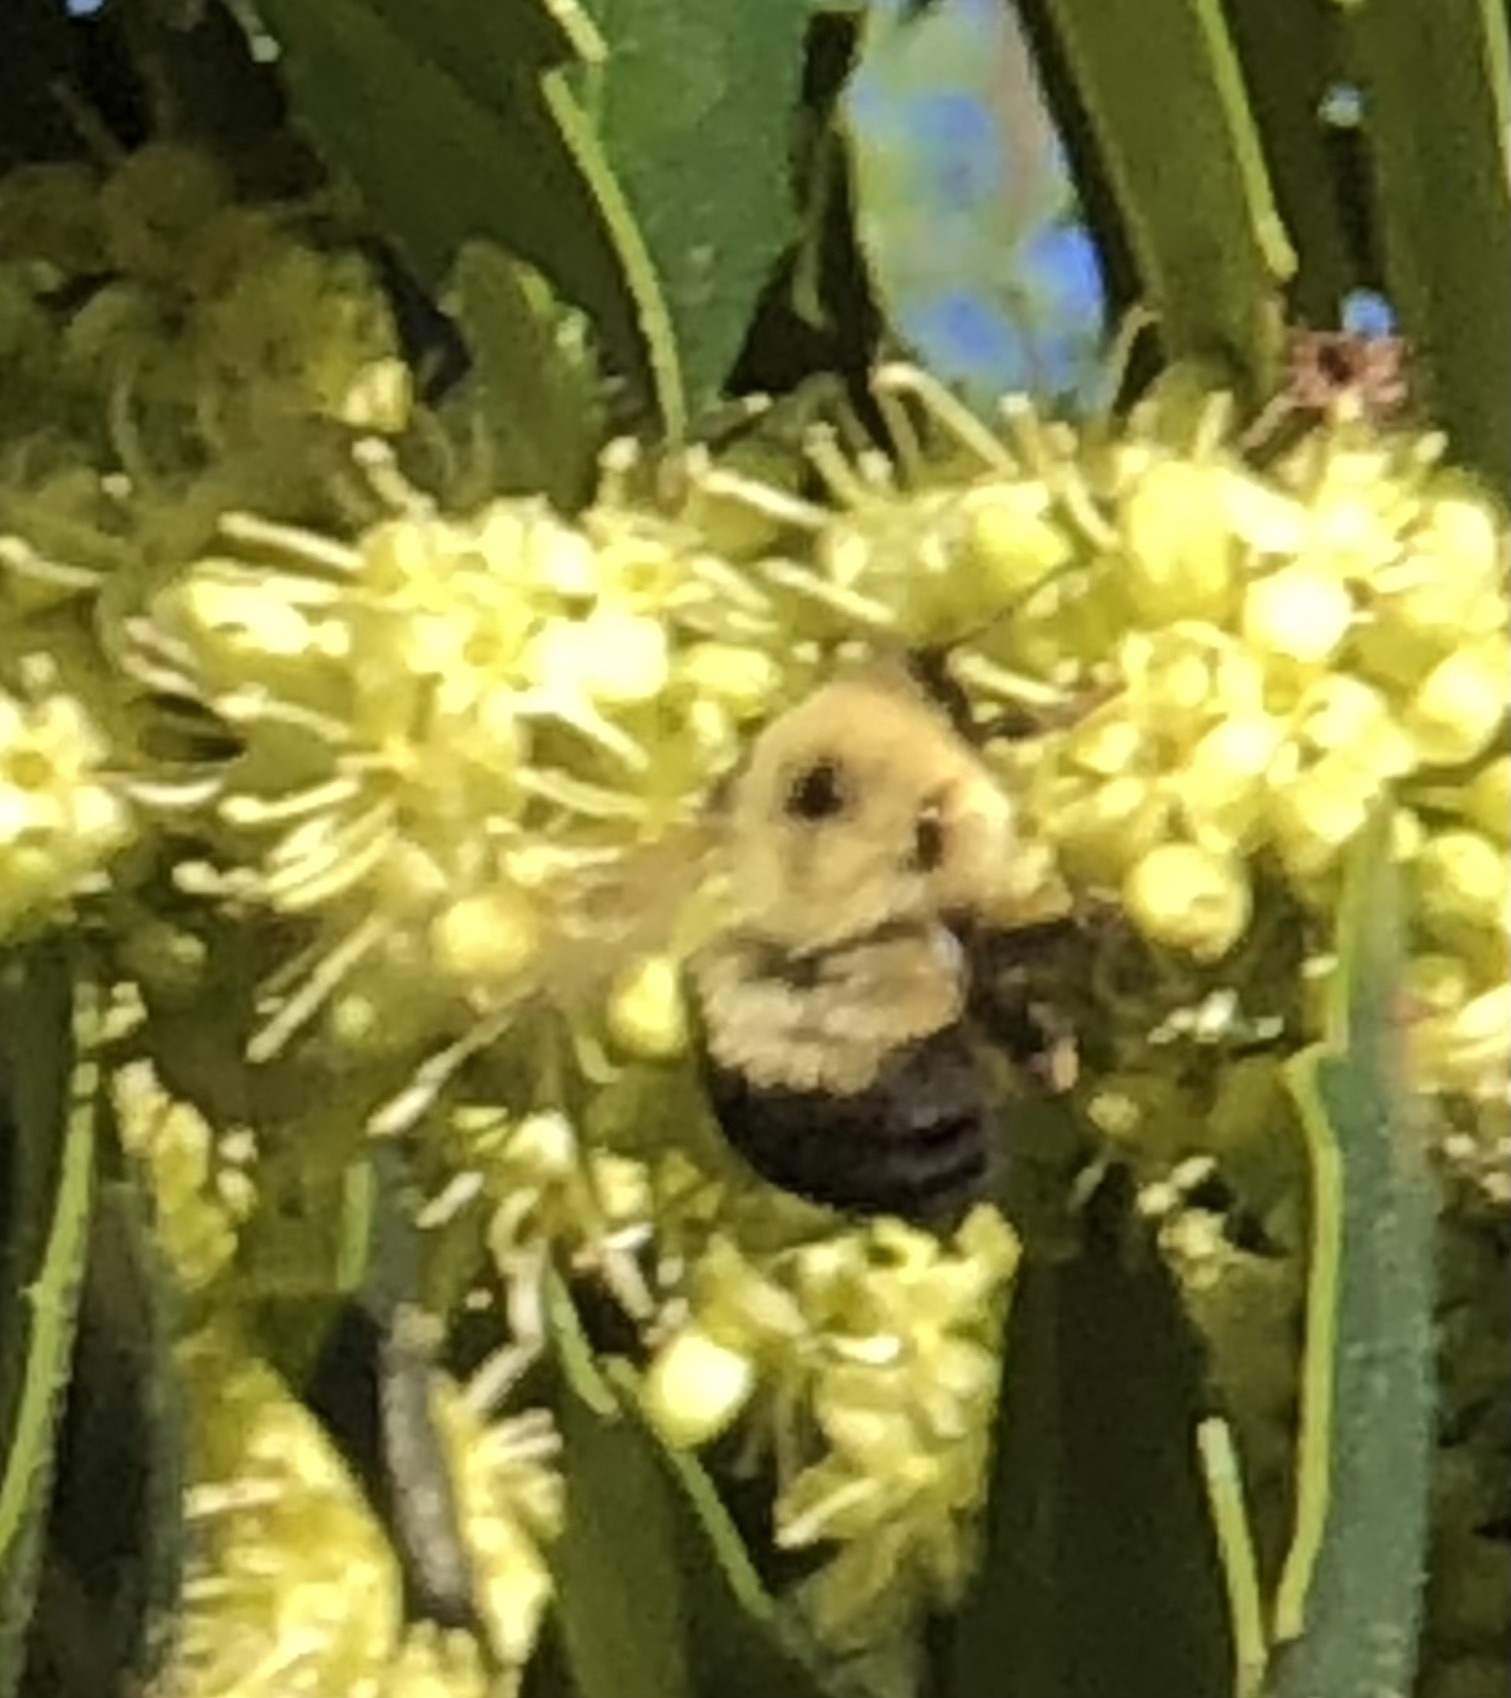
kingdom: Animalia
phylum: Arthropoda
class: Insecta
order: Hymenoptera
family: Apidae
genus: Bombus
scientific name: Bombus bimaculatus
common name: Two-spotted bumble bee
